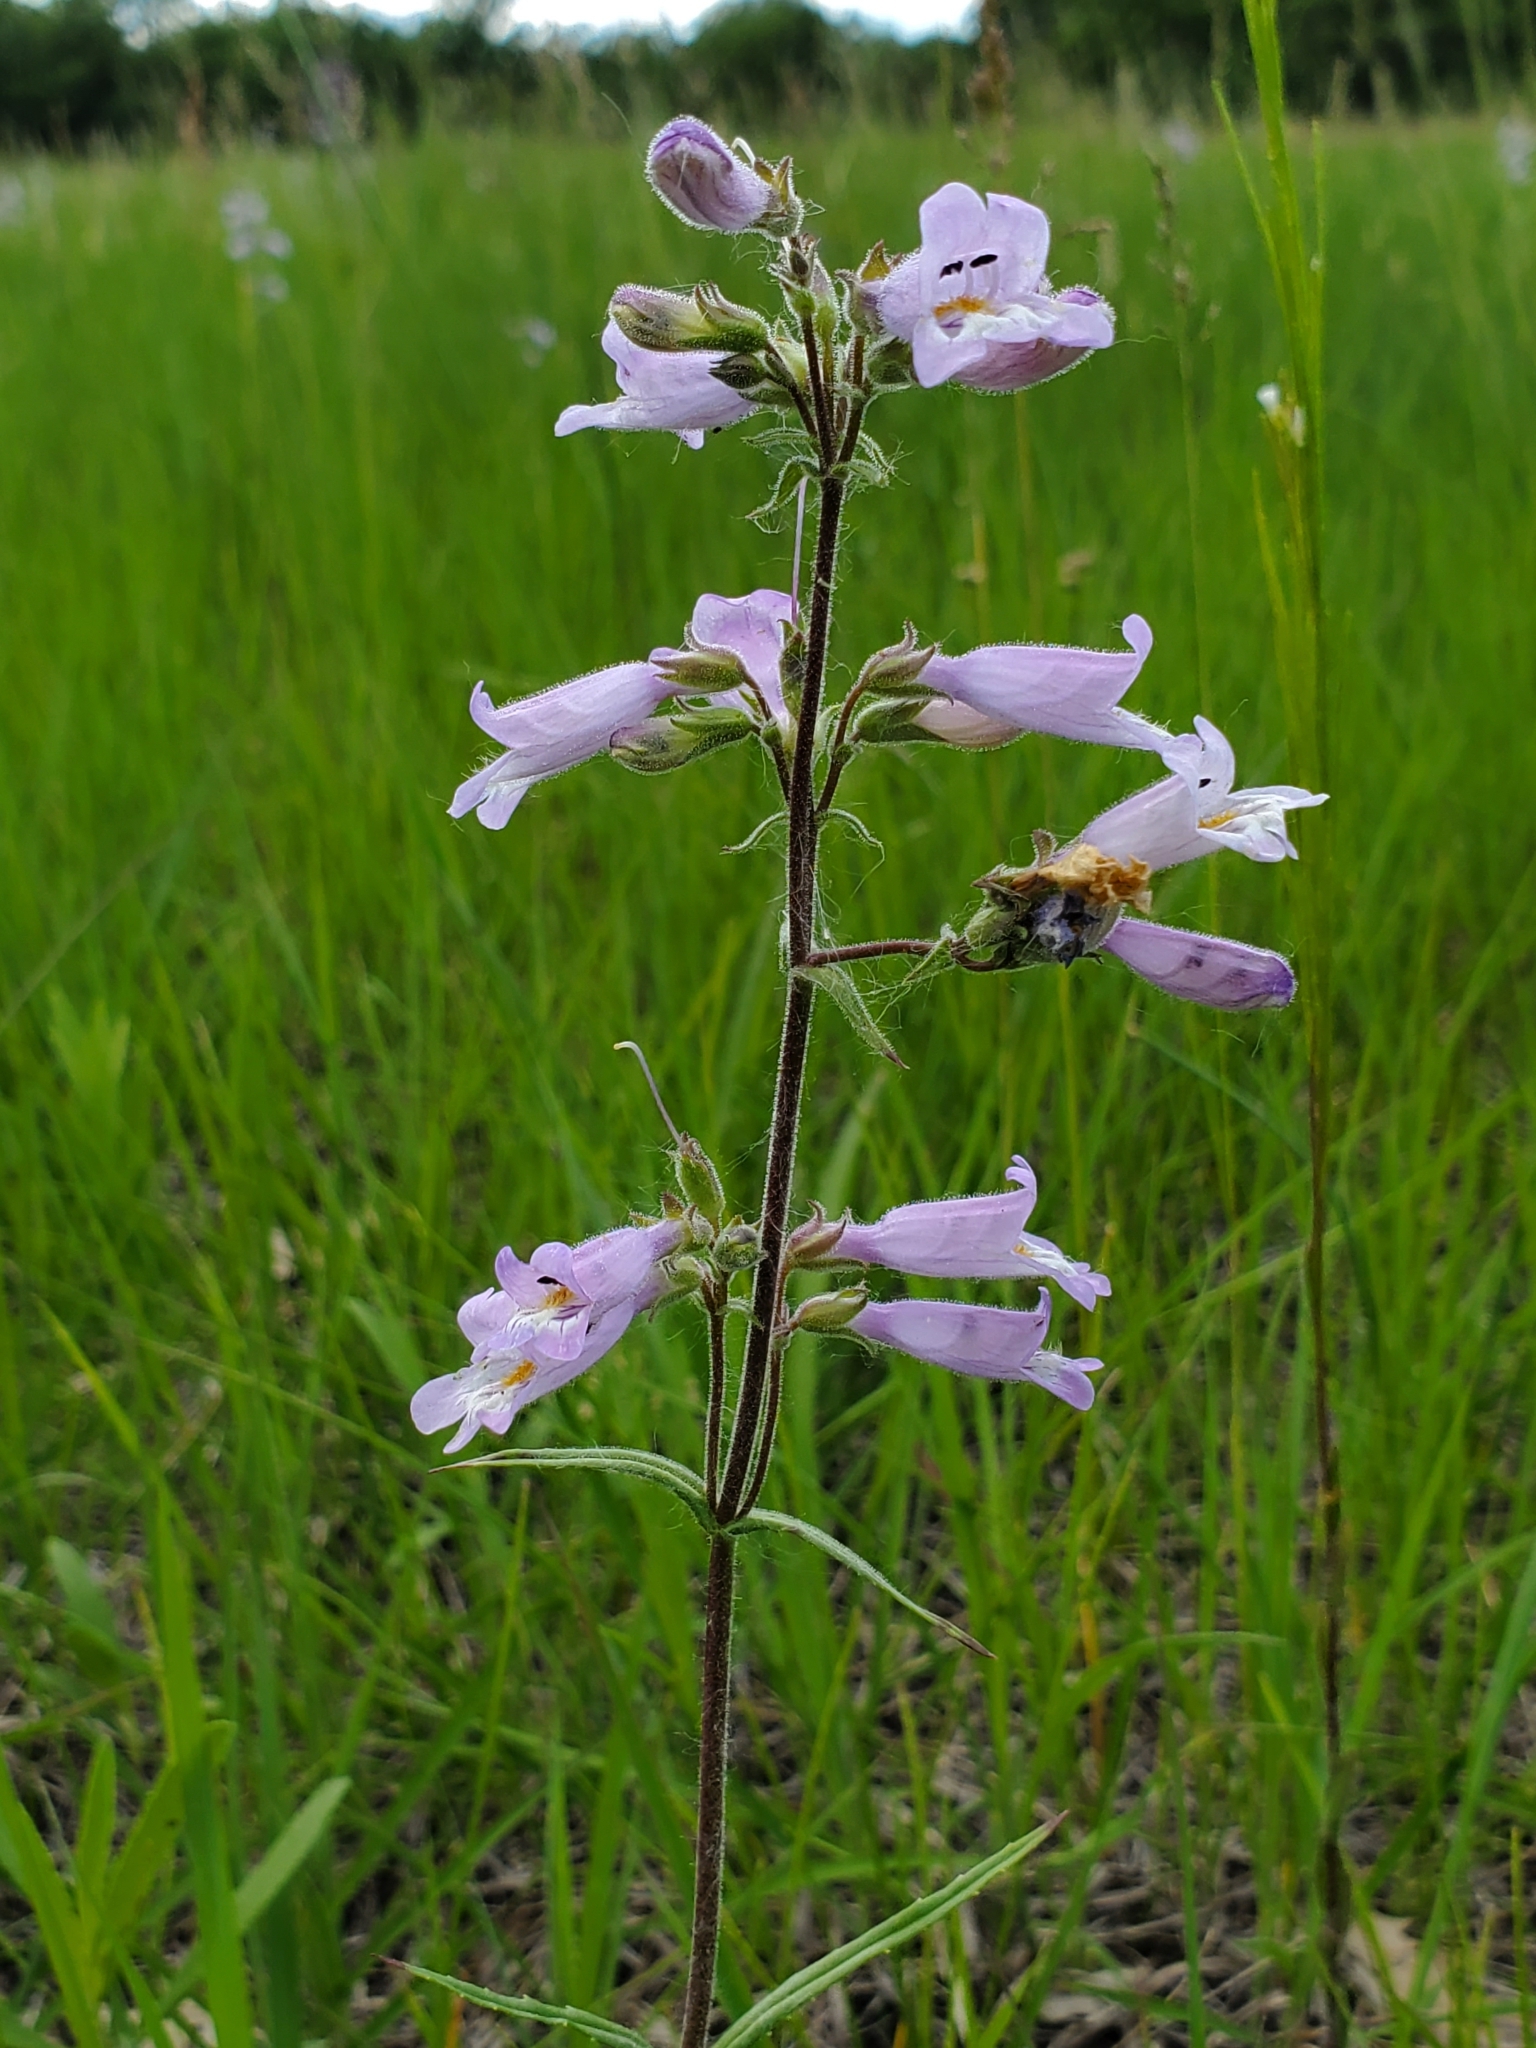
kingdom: Plantae
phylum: Tracheophyta
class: Magnoliopsida
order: Lamiales
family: Plantaginaceae
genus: Penstemon
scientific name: Penstemon gracilis
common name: Slender beardtongue
